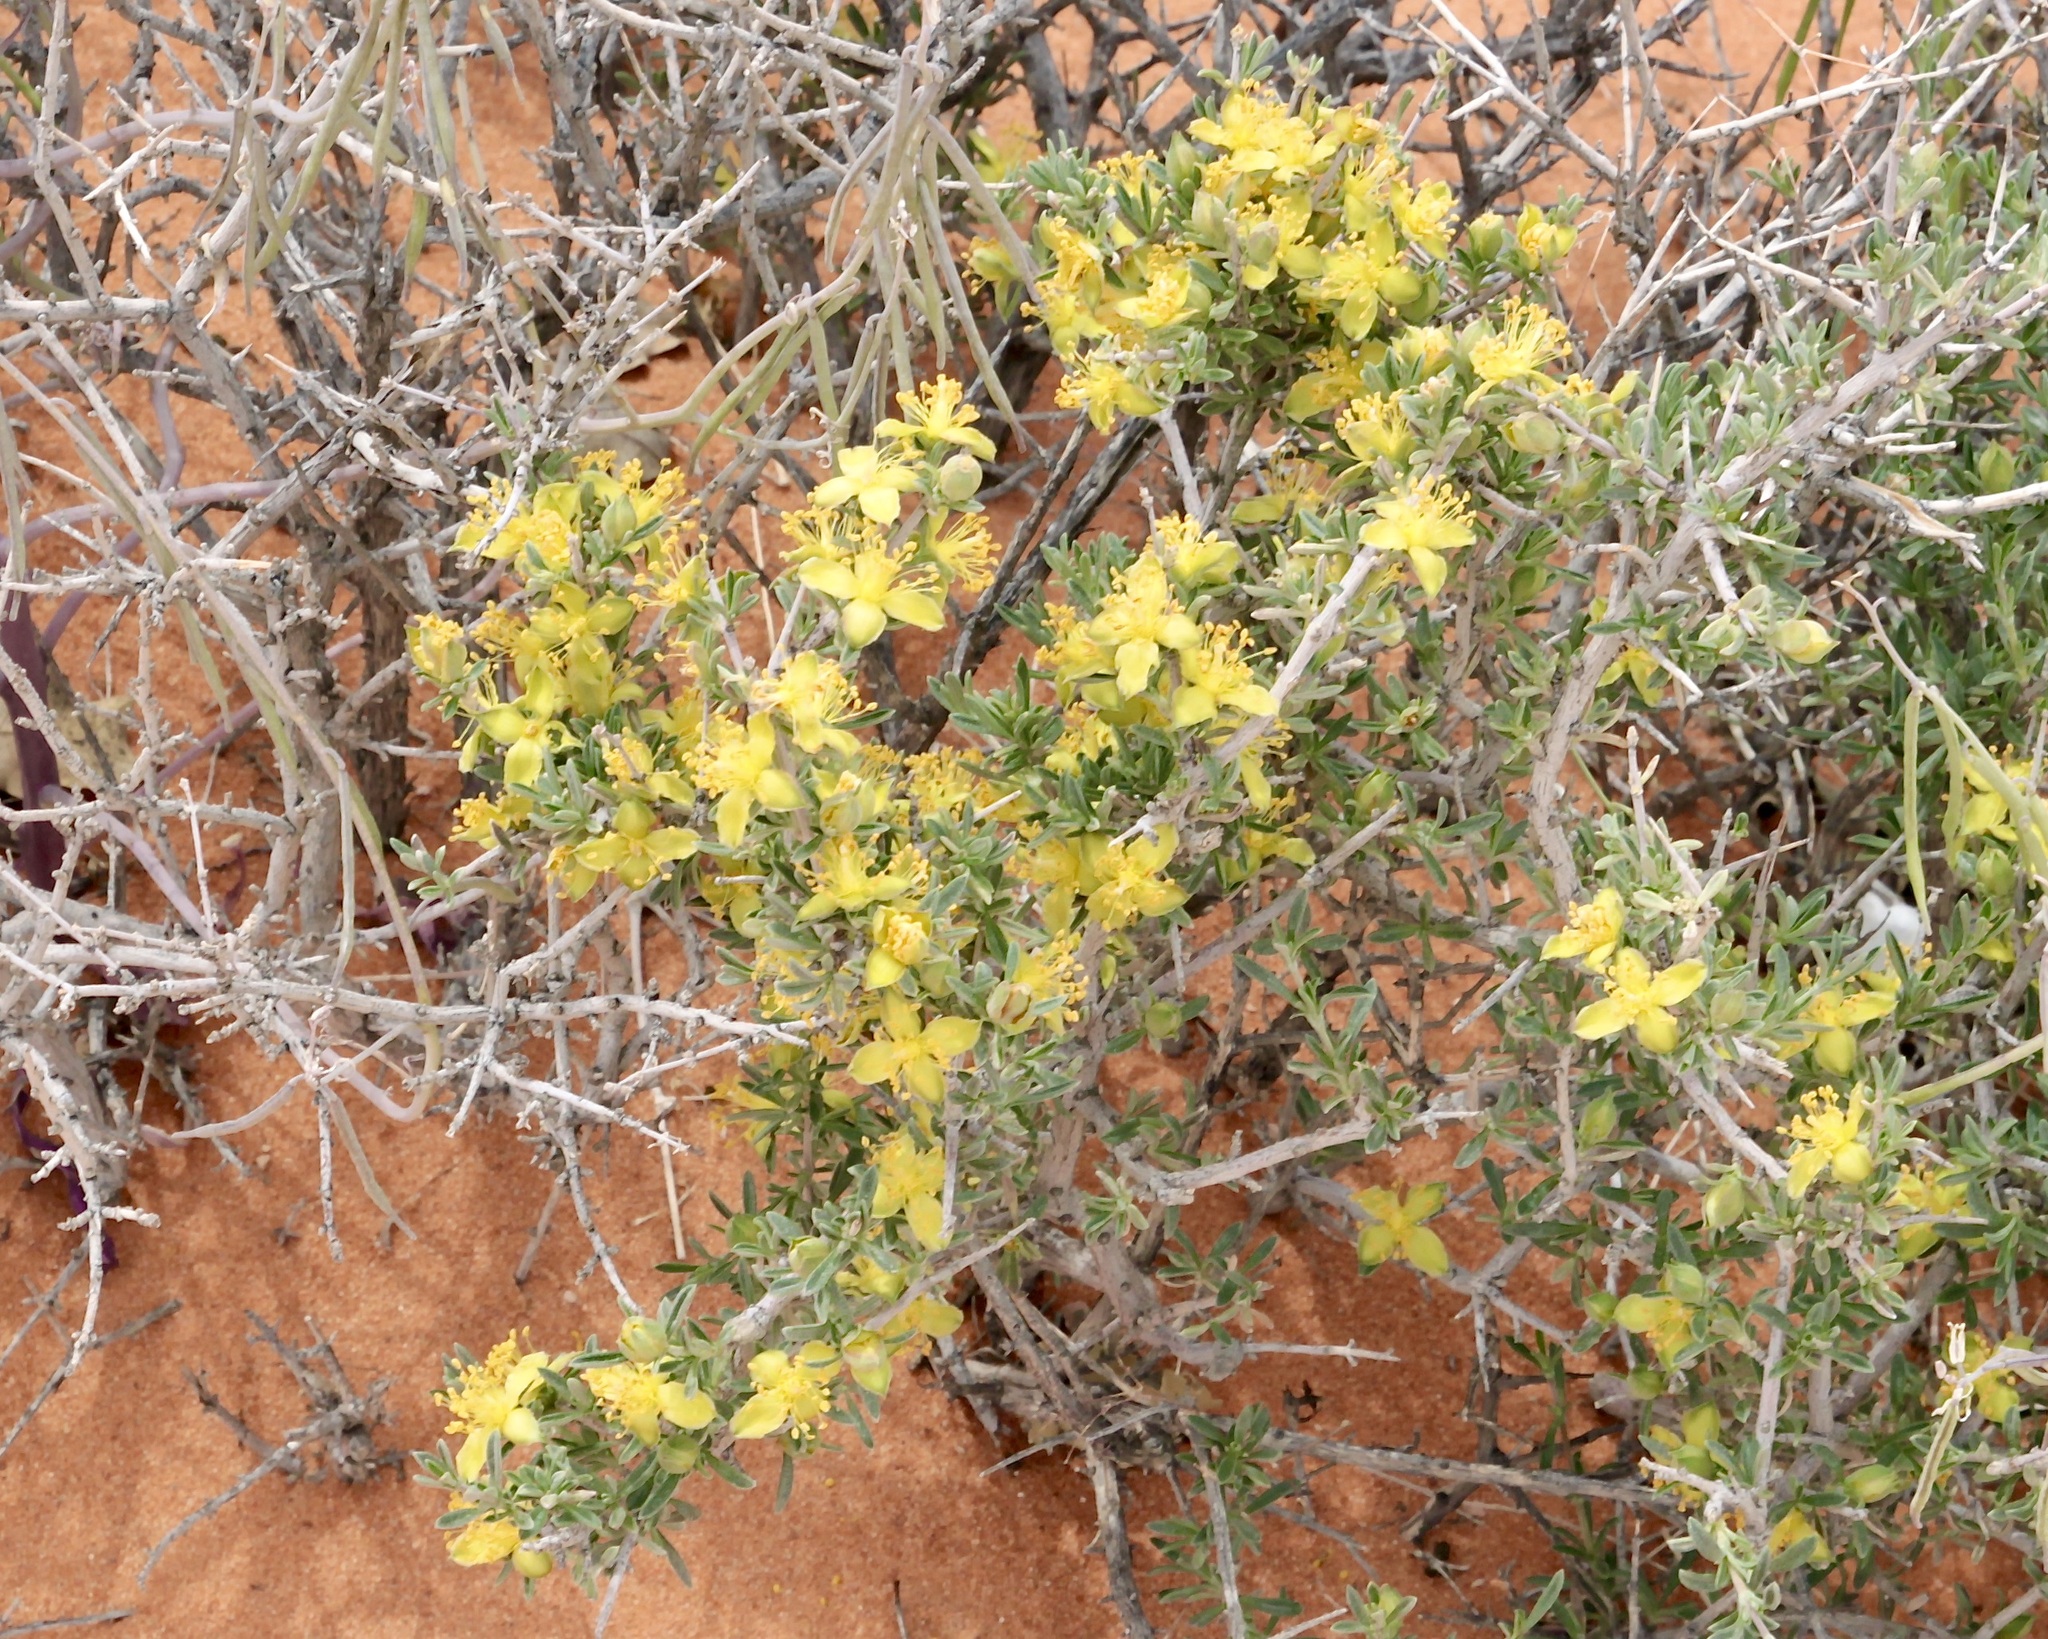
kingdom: Plantae
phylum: Tracheophyta
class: Magnoliopsida
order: Rosales
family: Rosaceae
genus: Coleogyne
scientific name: Coleogyne ramosissima
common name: Blackbrush
